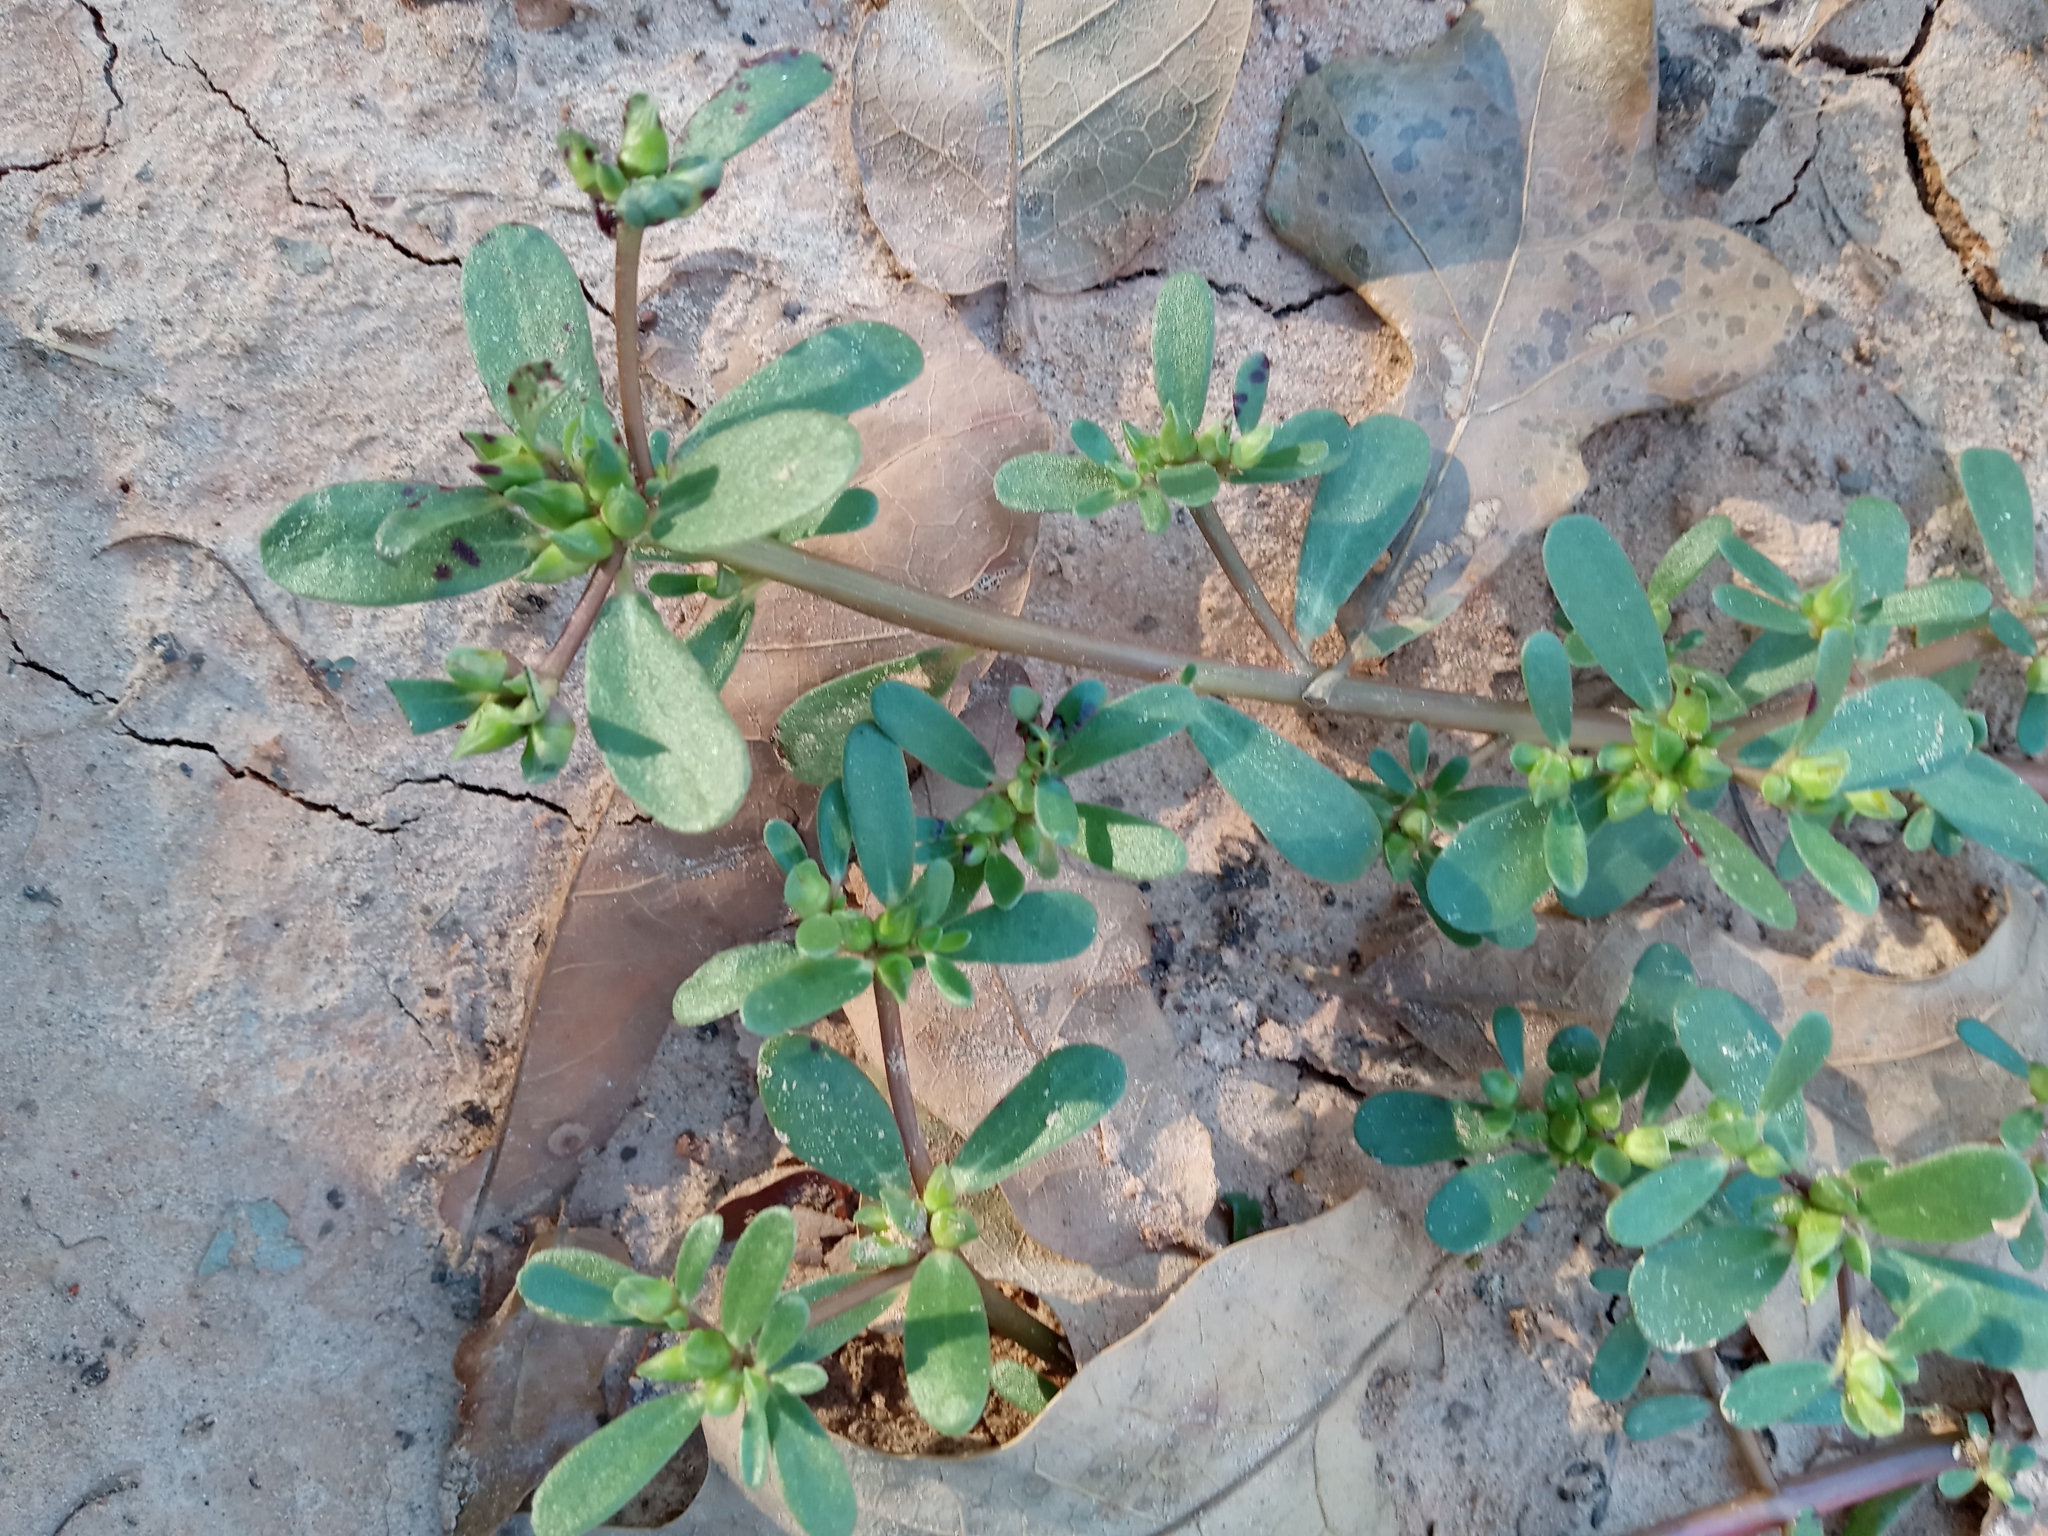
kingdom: Plantae
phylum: Tracheophyta
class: Magnoliopsida
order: Caryophyllales
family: Portulacaceae
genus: Portulaca
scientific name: Portulaca oleracea
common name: Common purslane
